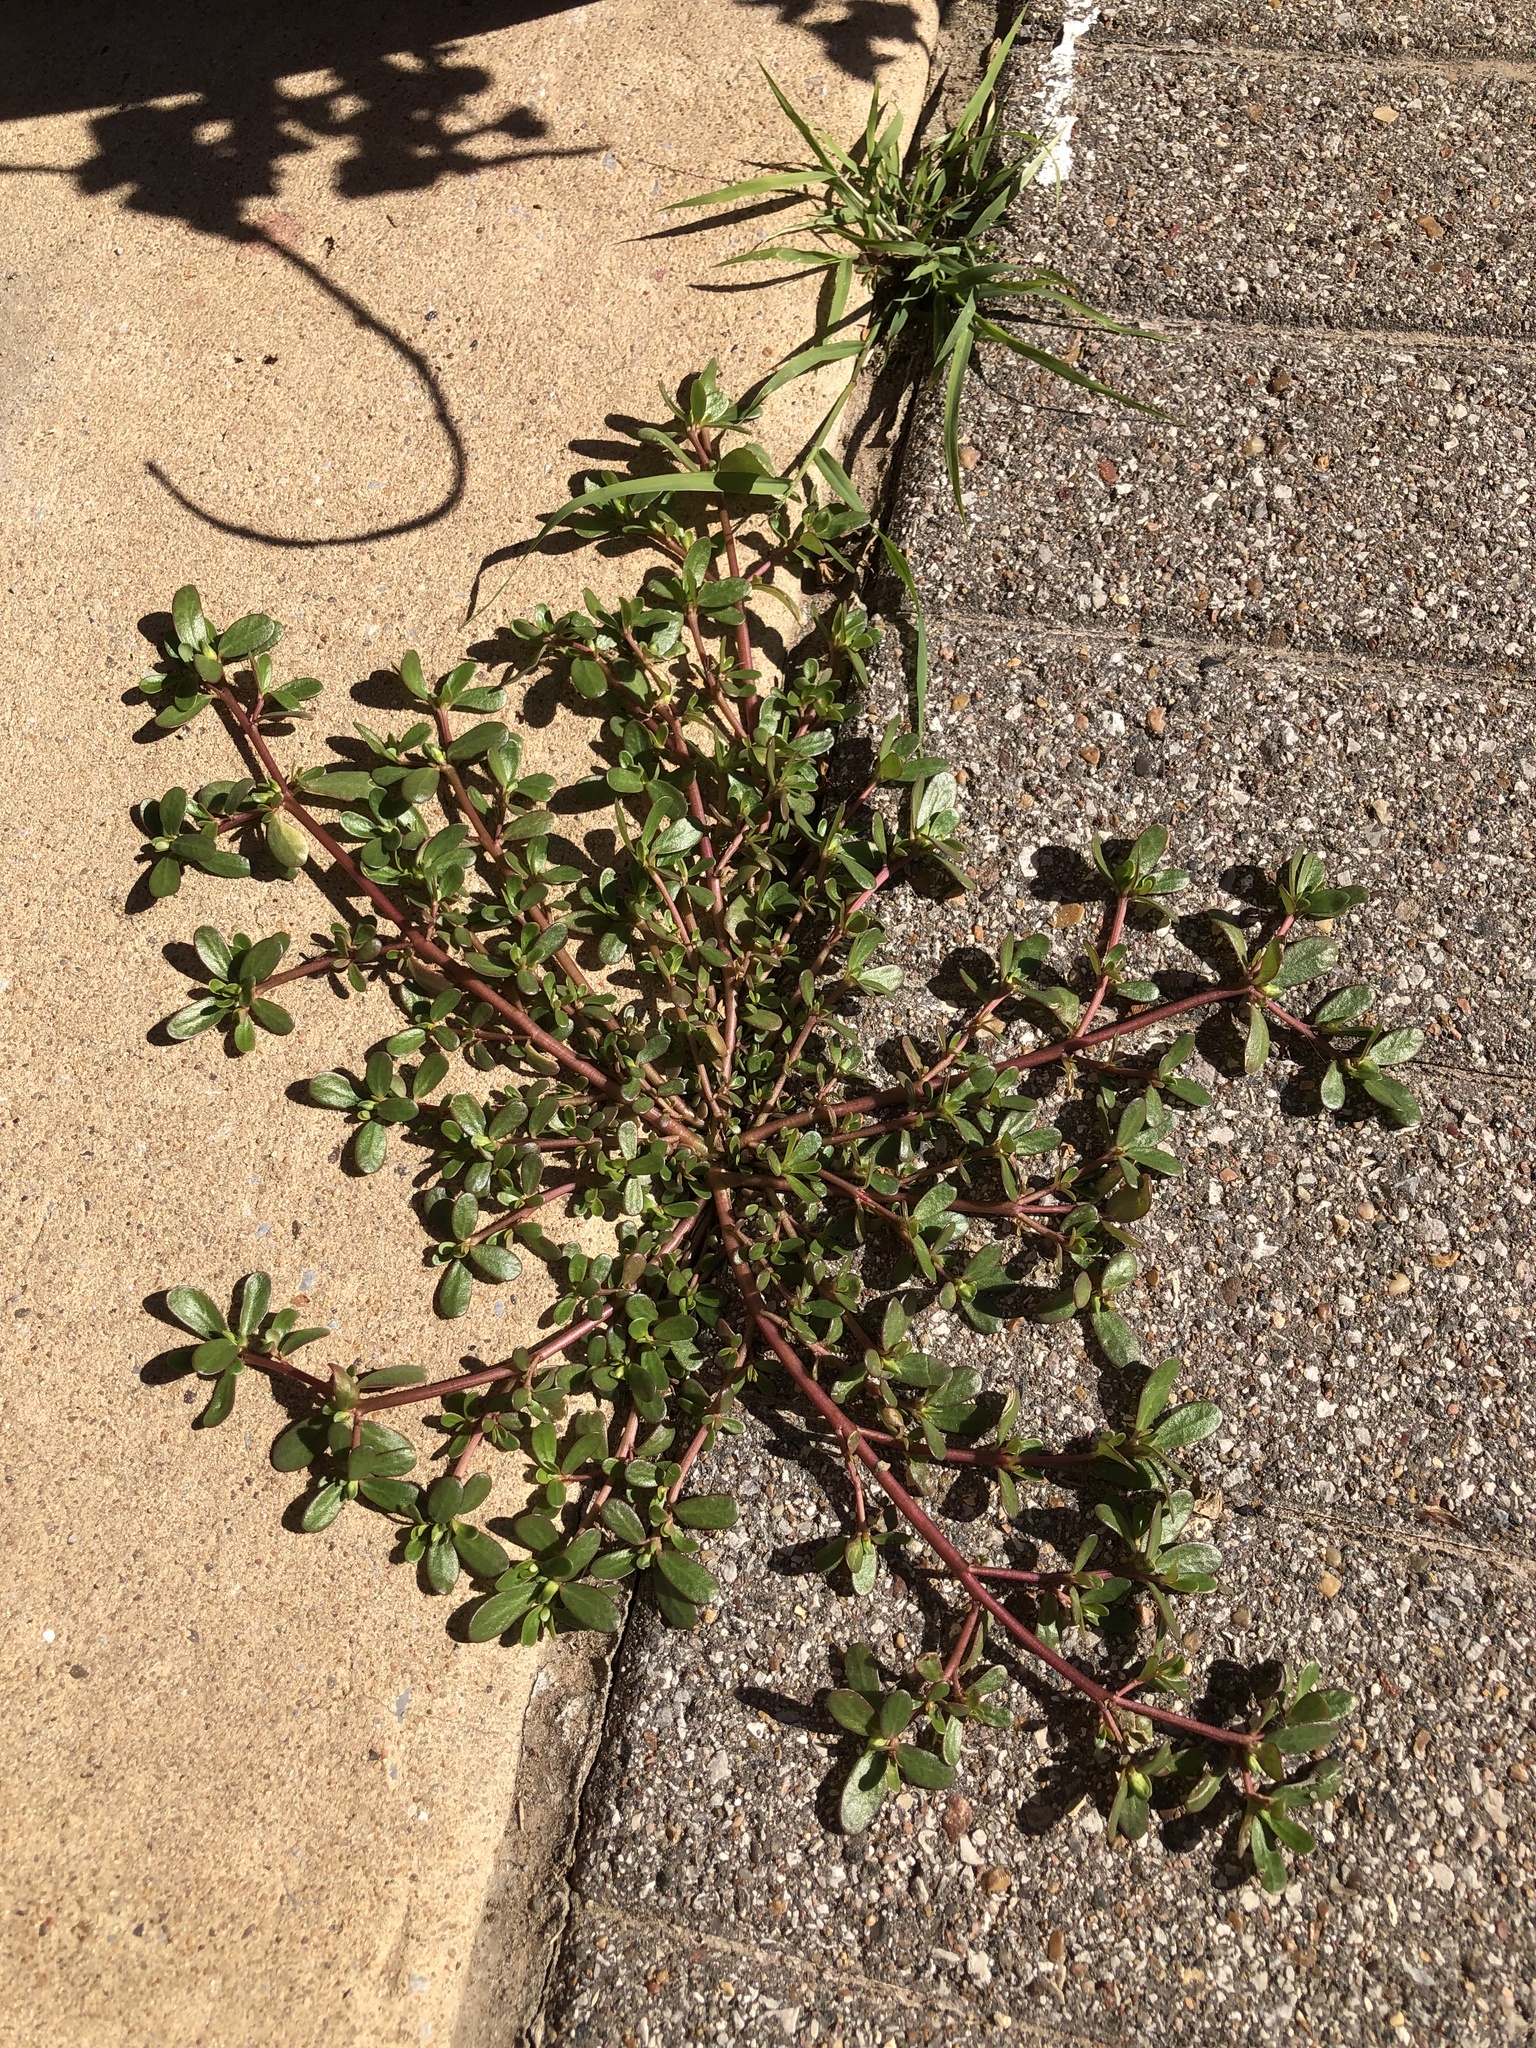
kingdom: Plantae
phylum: Tracheophyta
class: Magnoliopsida
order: Caryophyllales
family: Portulacaceae
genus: Portulaca
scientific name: Portulaca oleracea
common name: Common purslane
